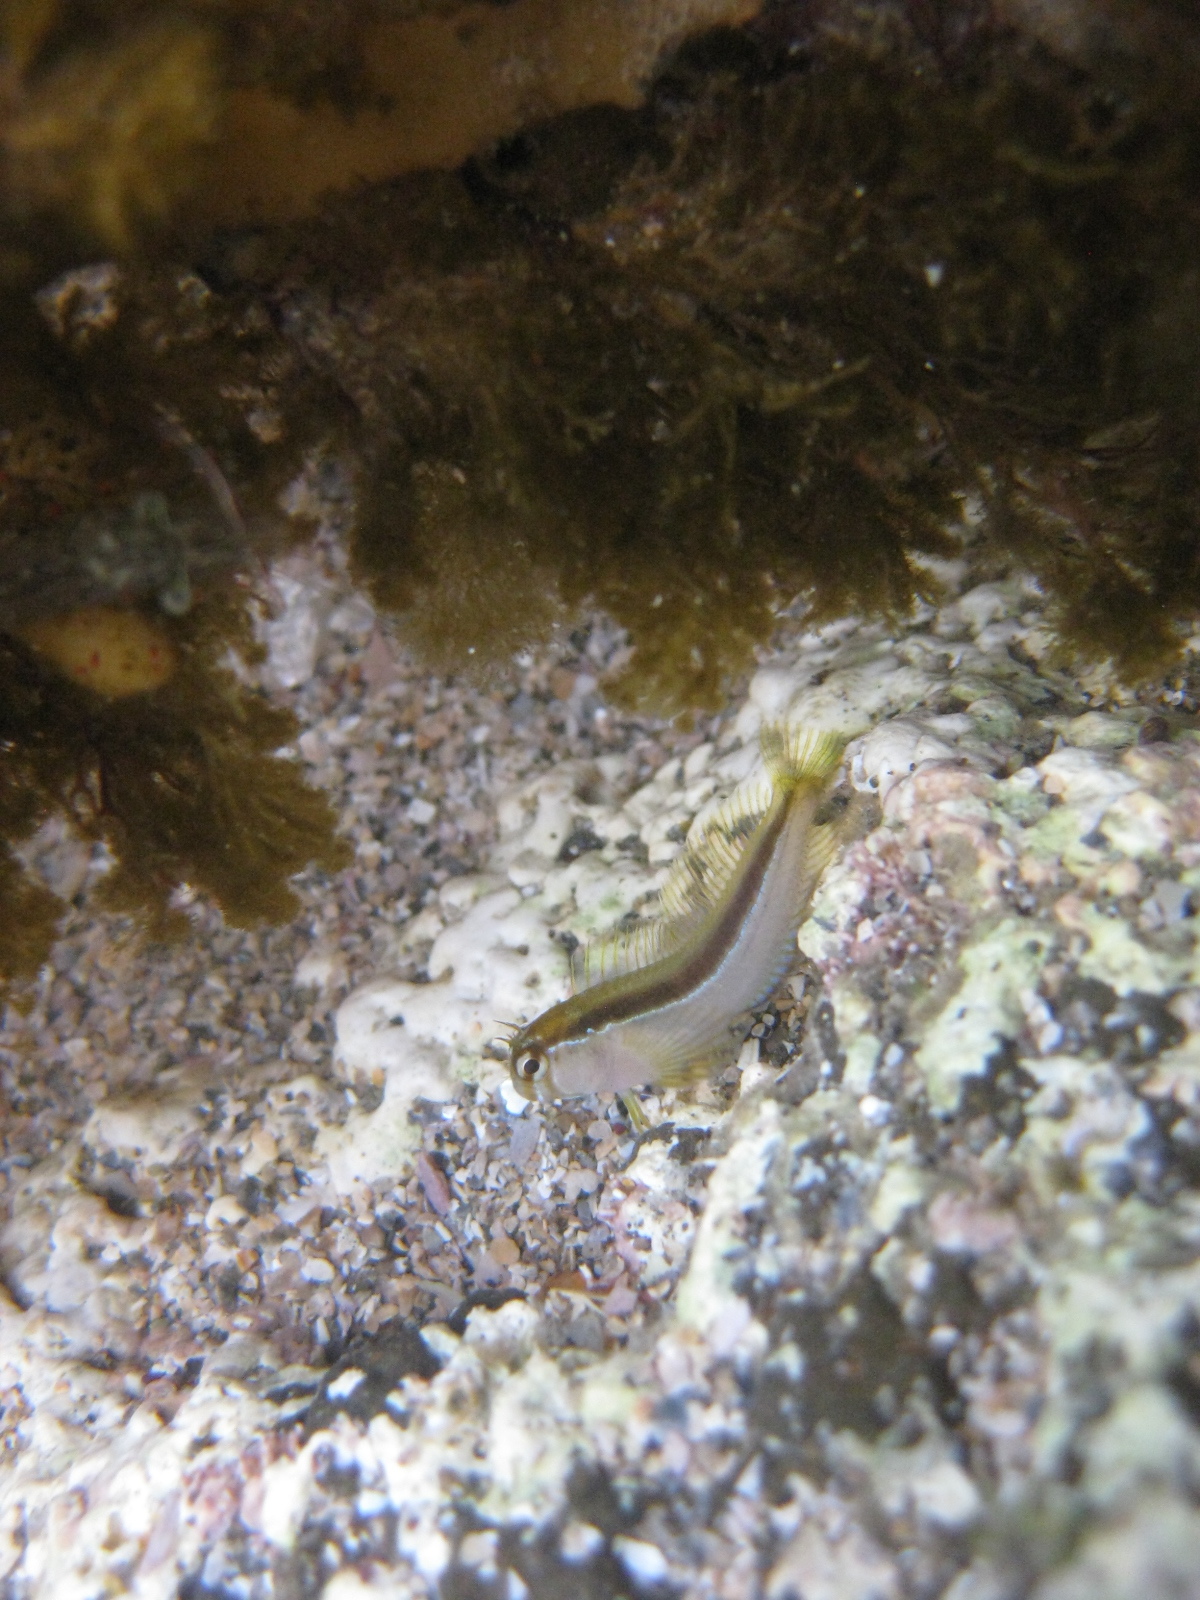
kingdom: Animalia
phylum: Chordata
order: Perciformes
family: Blenniidae
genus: Parablennius
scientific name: Parablennius laticlavius
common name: Crested blenny
